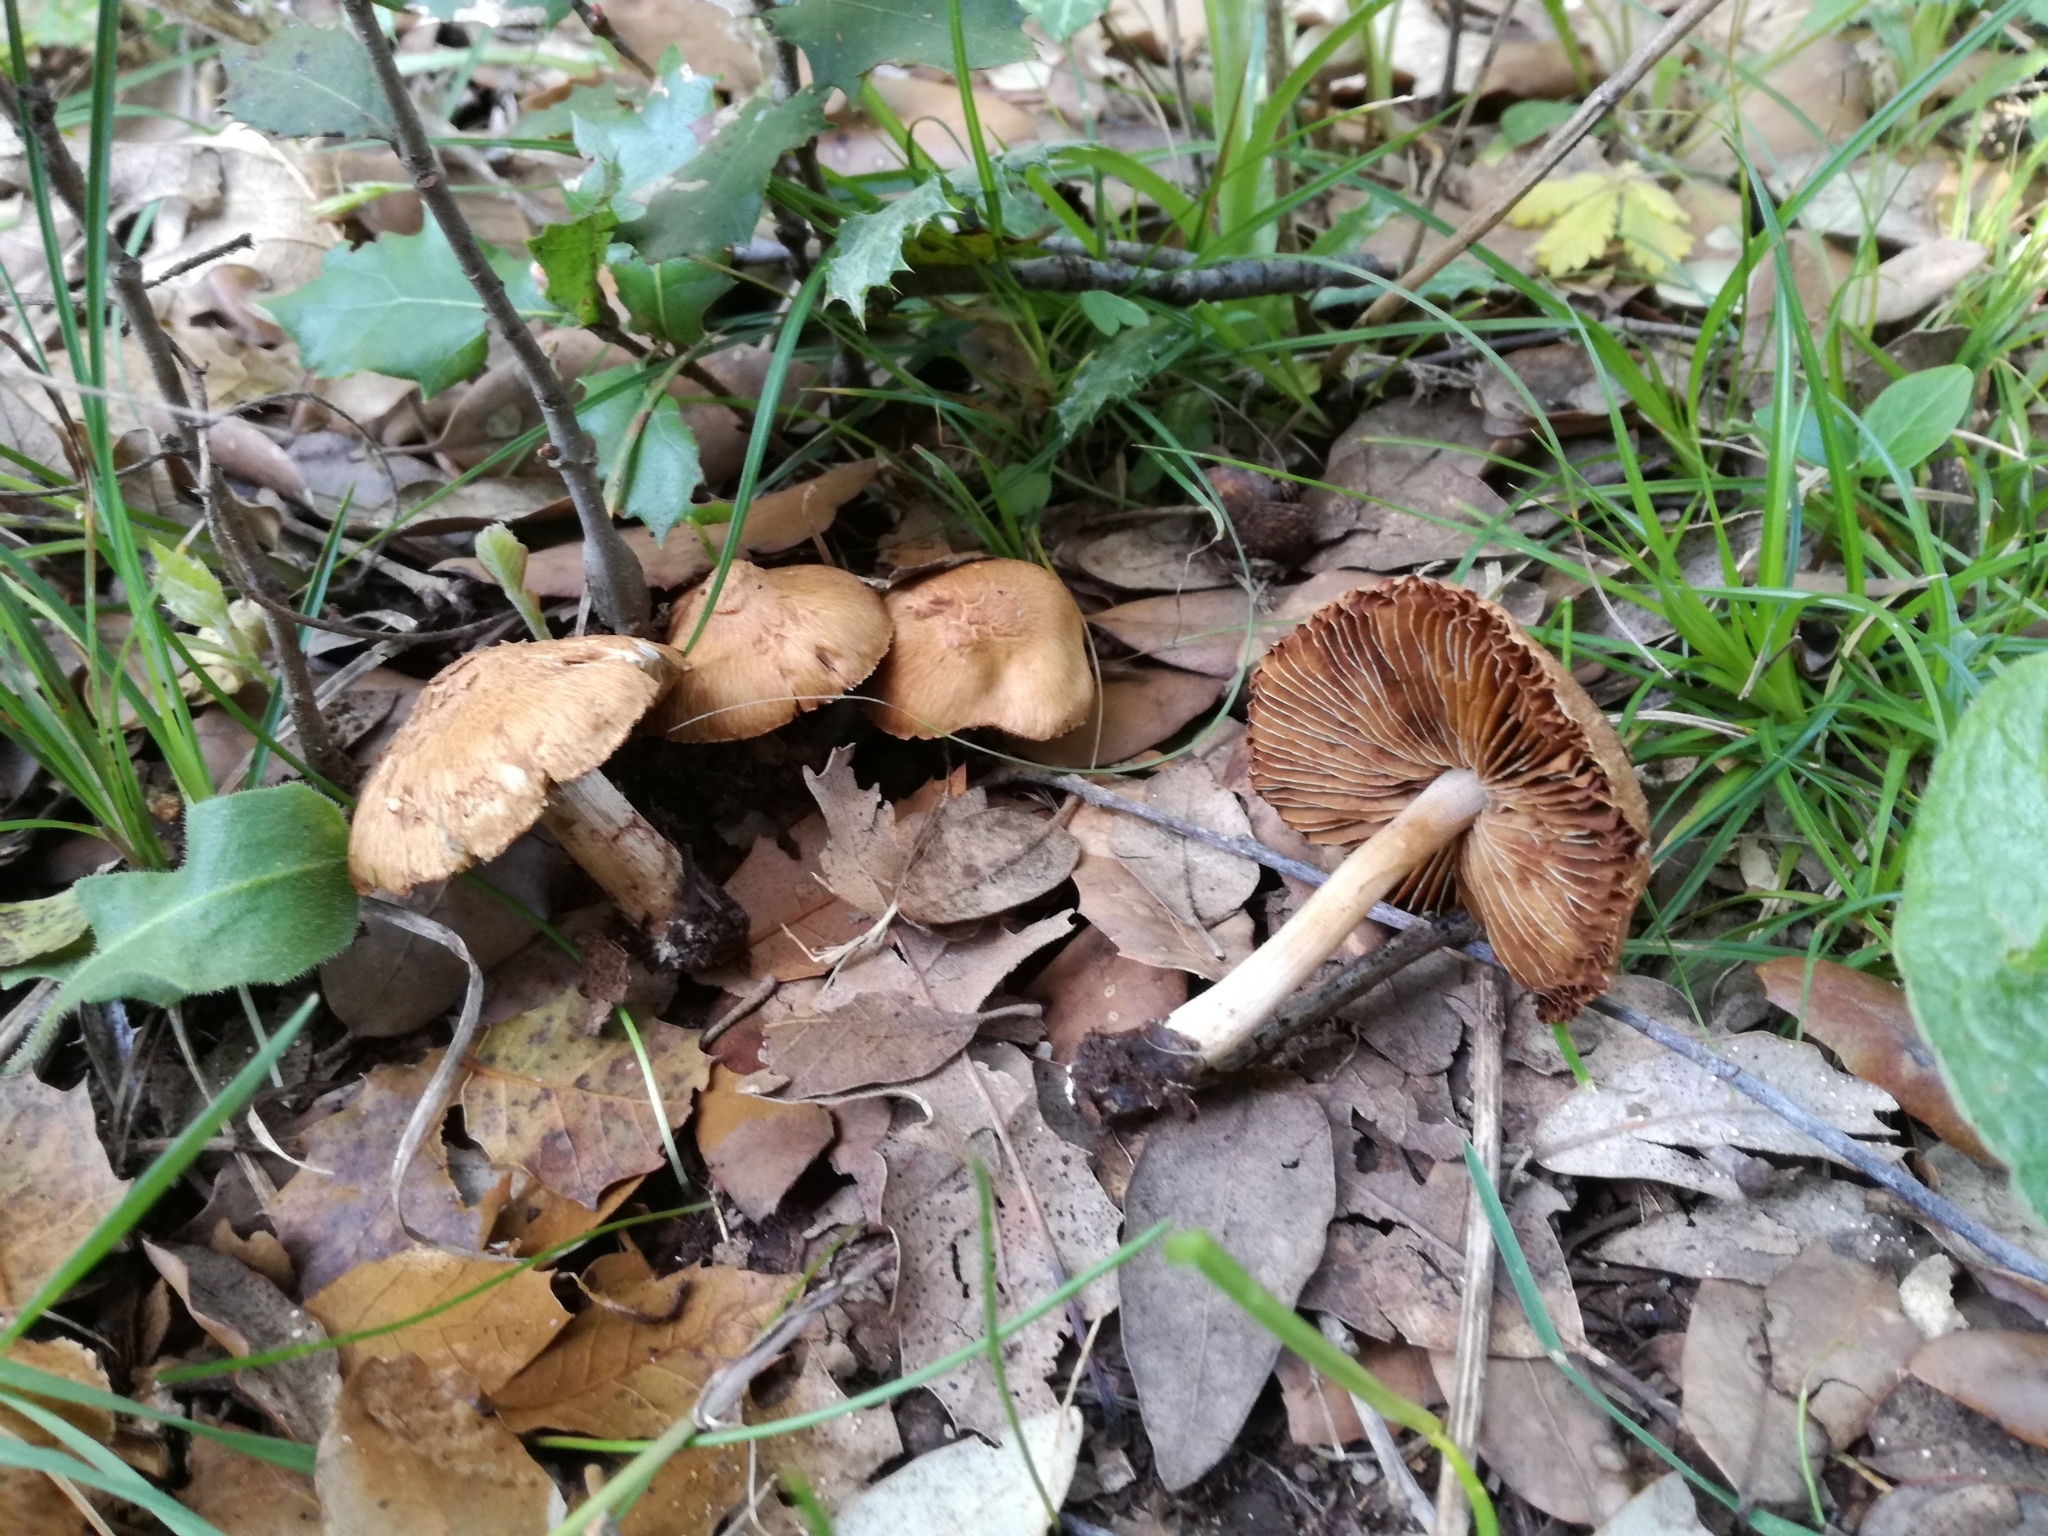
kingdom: Fungi
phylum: Basidiomycota
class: Agaricomycetes
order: Agaricales
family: Inocybaceae
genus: Inosperma
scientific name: Inosperma pisciodorum
